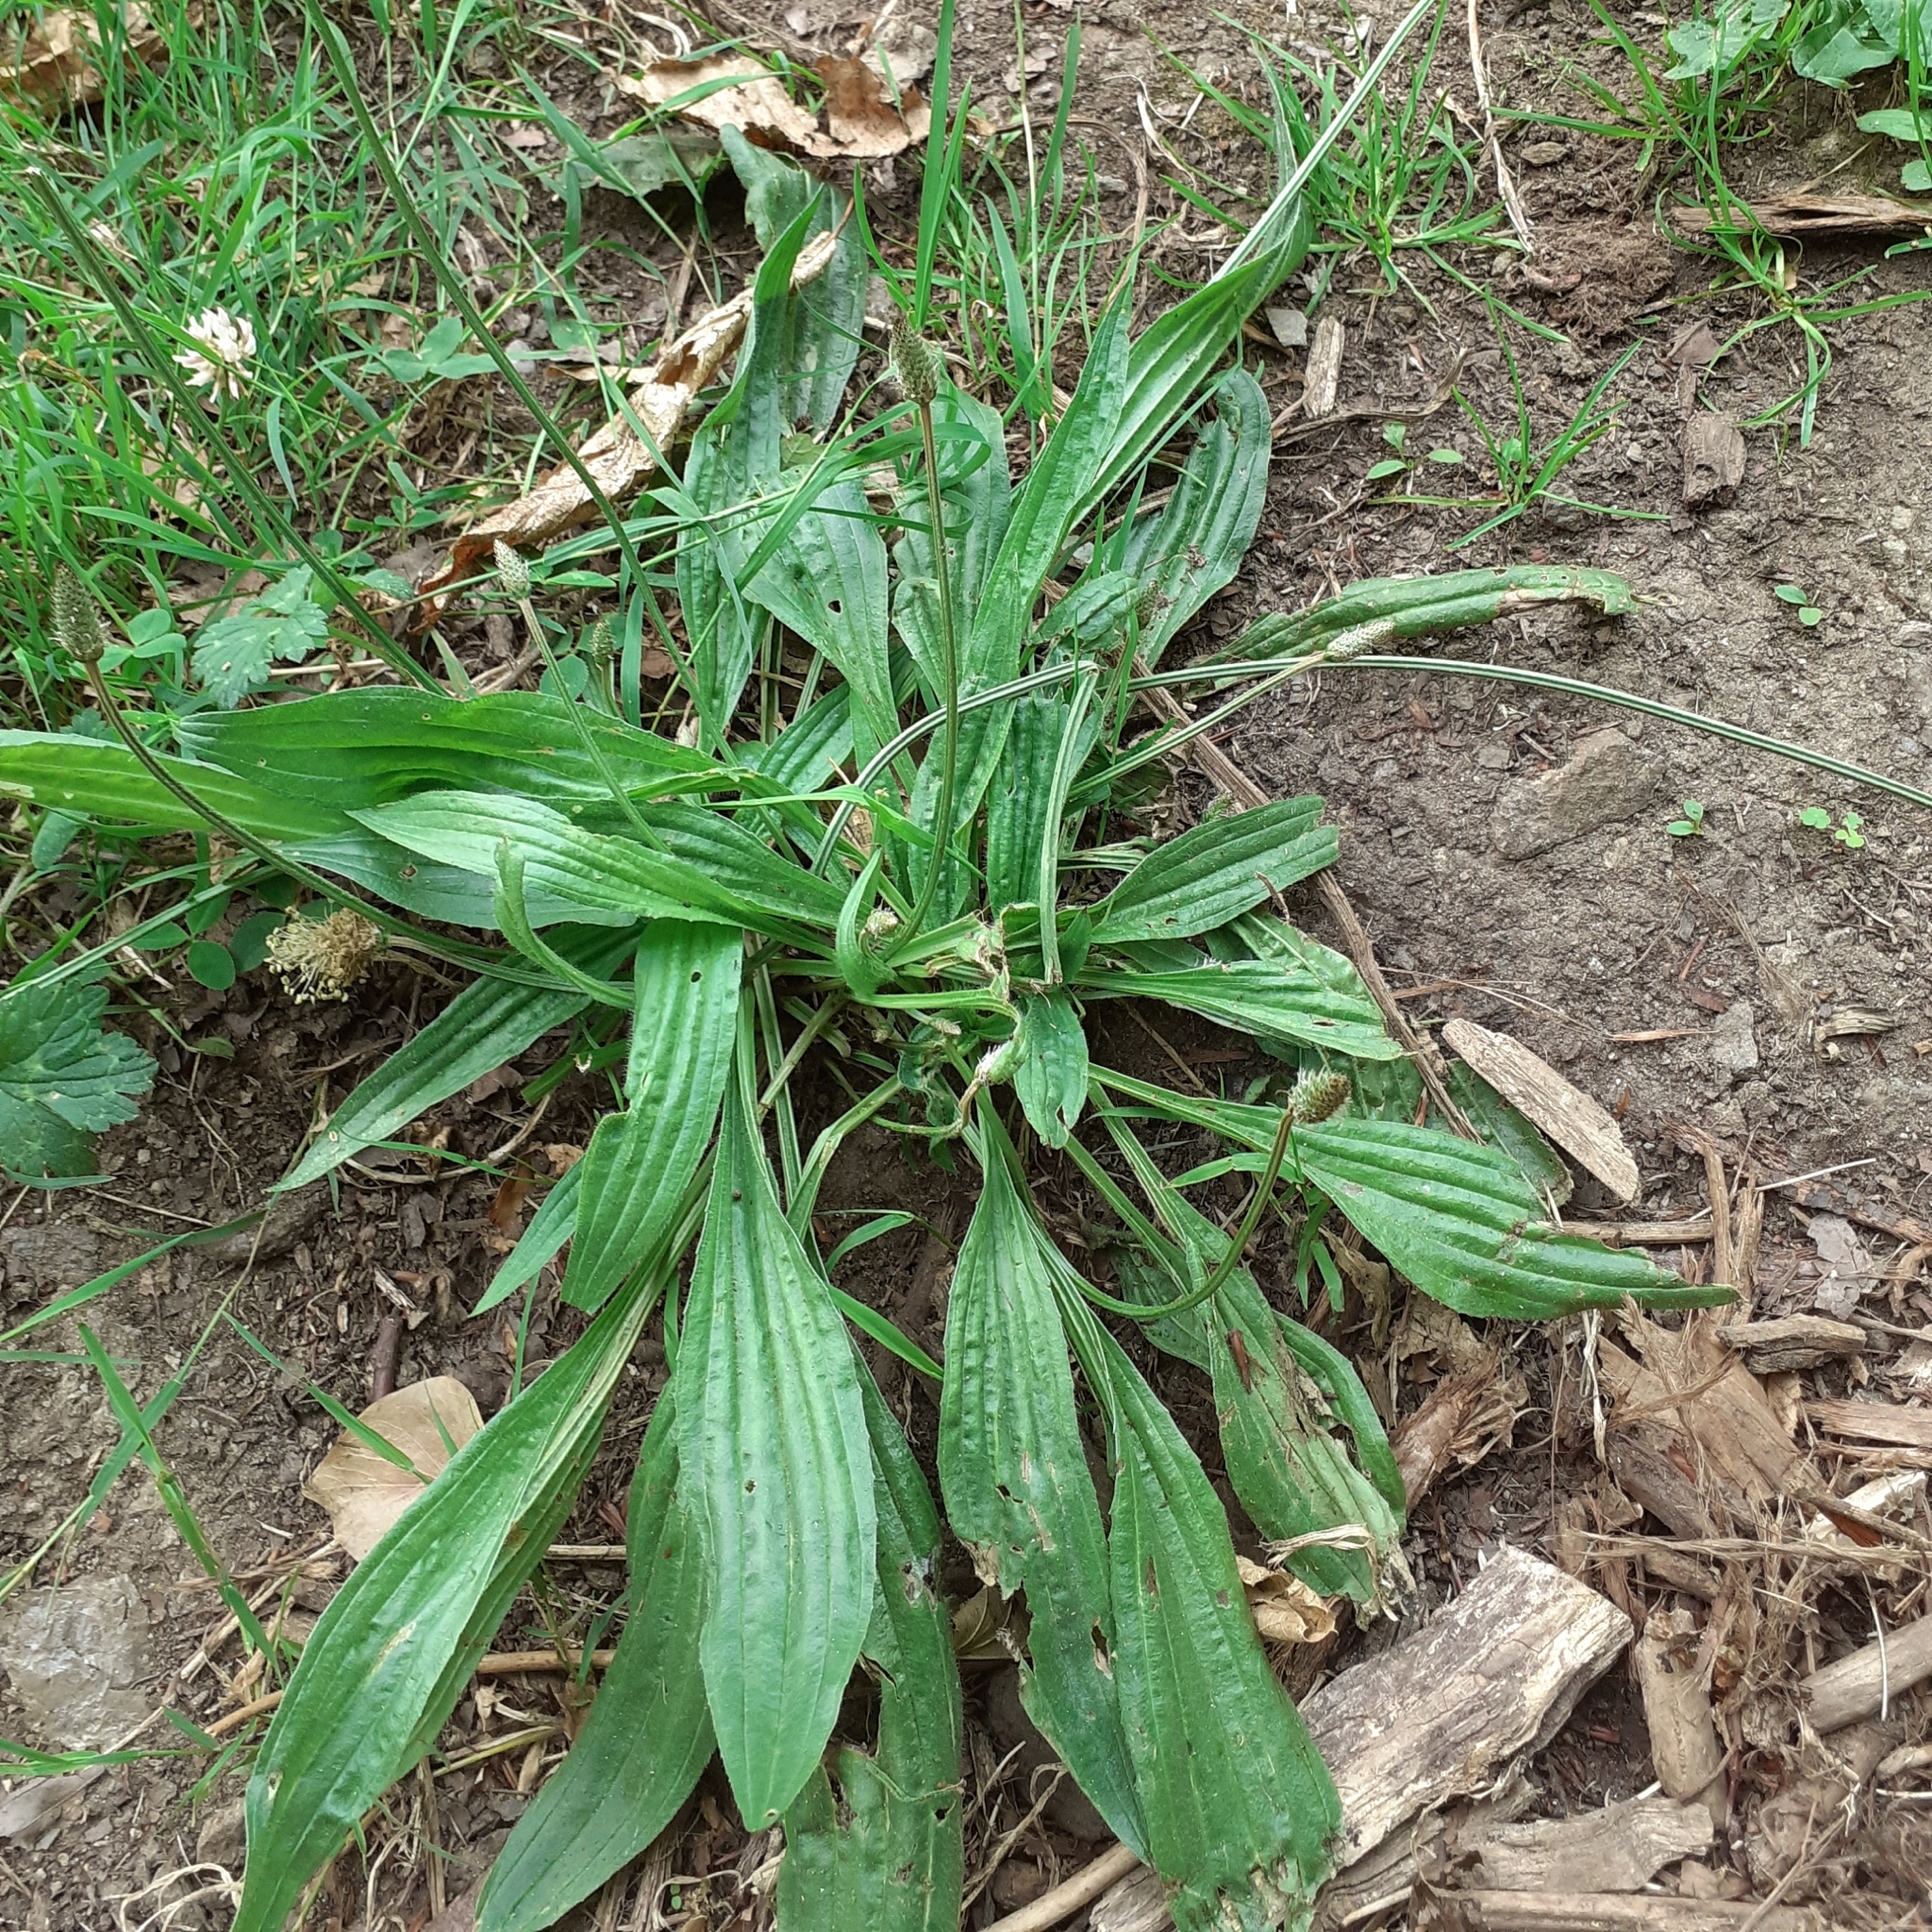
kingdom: Plantae
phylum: Tracheophyta
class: Magnoliopsida
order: Lamiales
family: Plantaginaceae
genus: Plantago
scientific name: Plantago lanceolata
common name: Ribwort plantain
